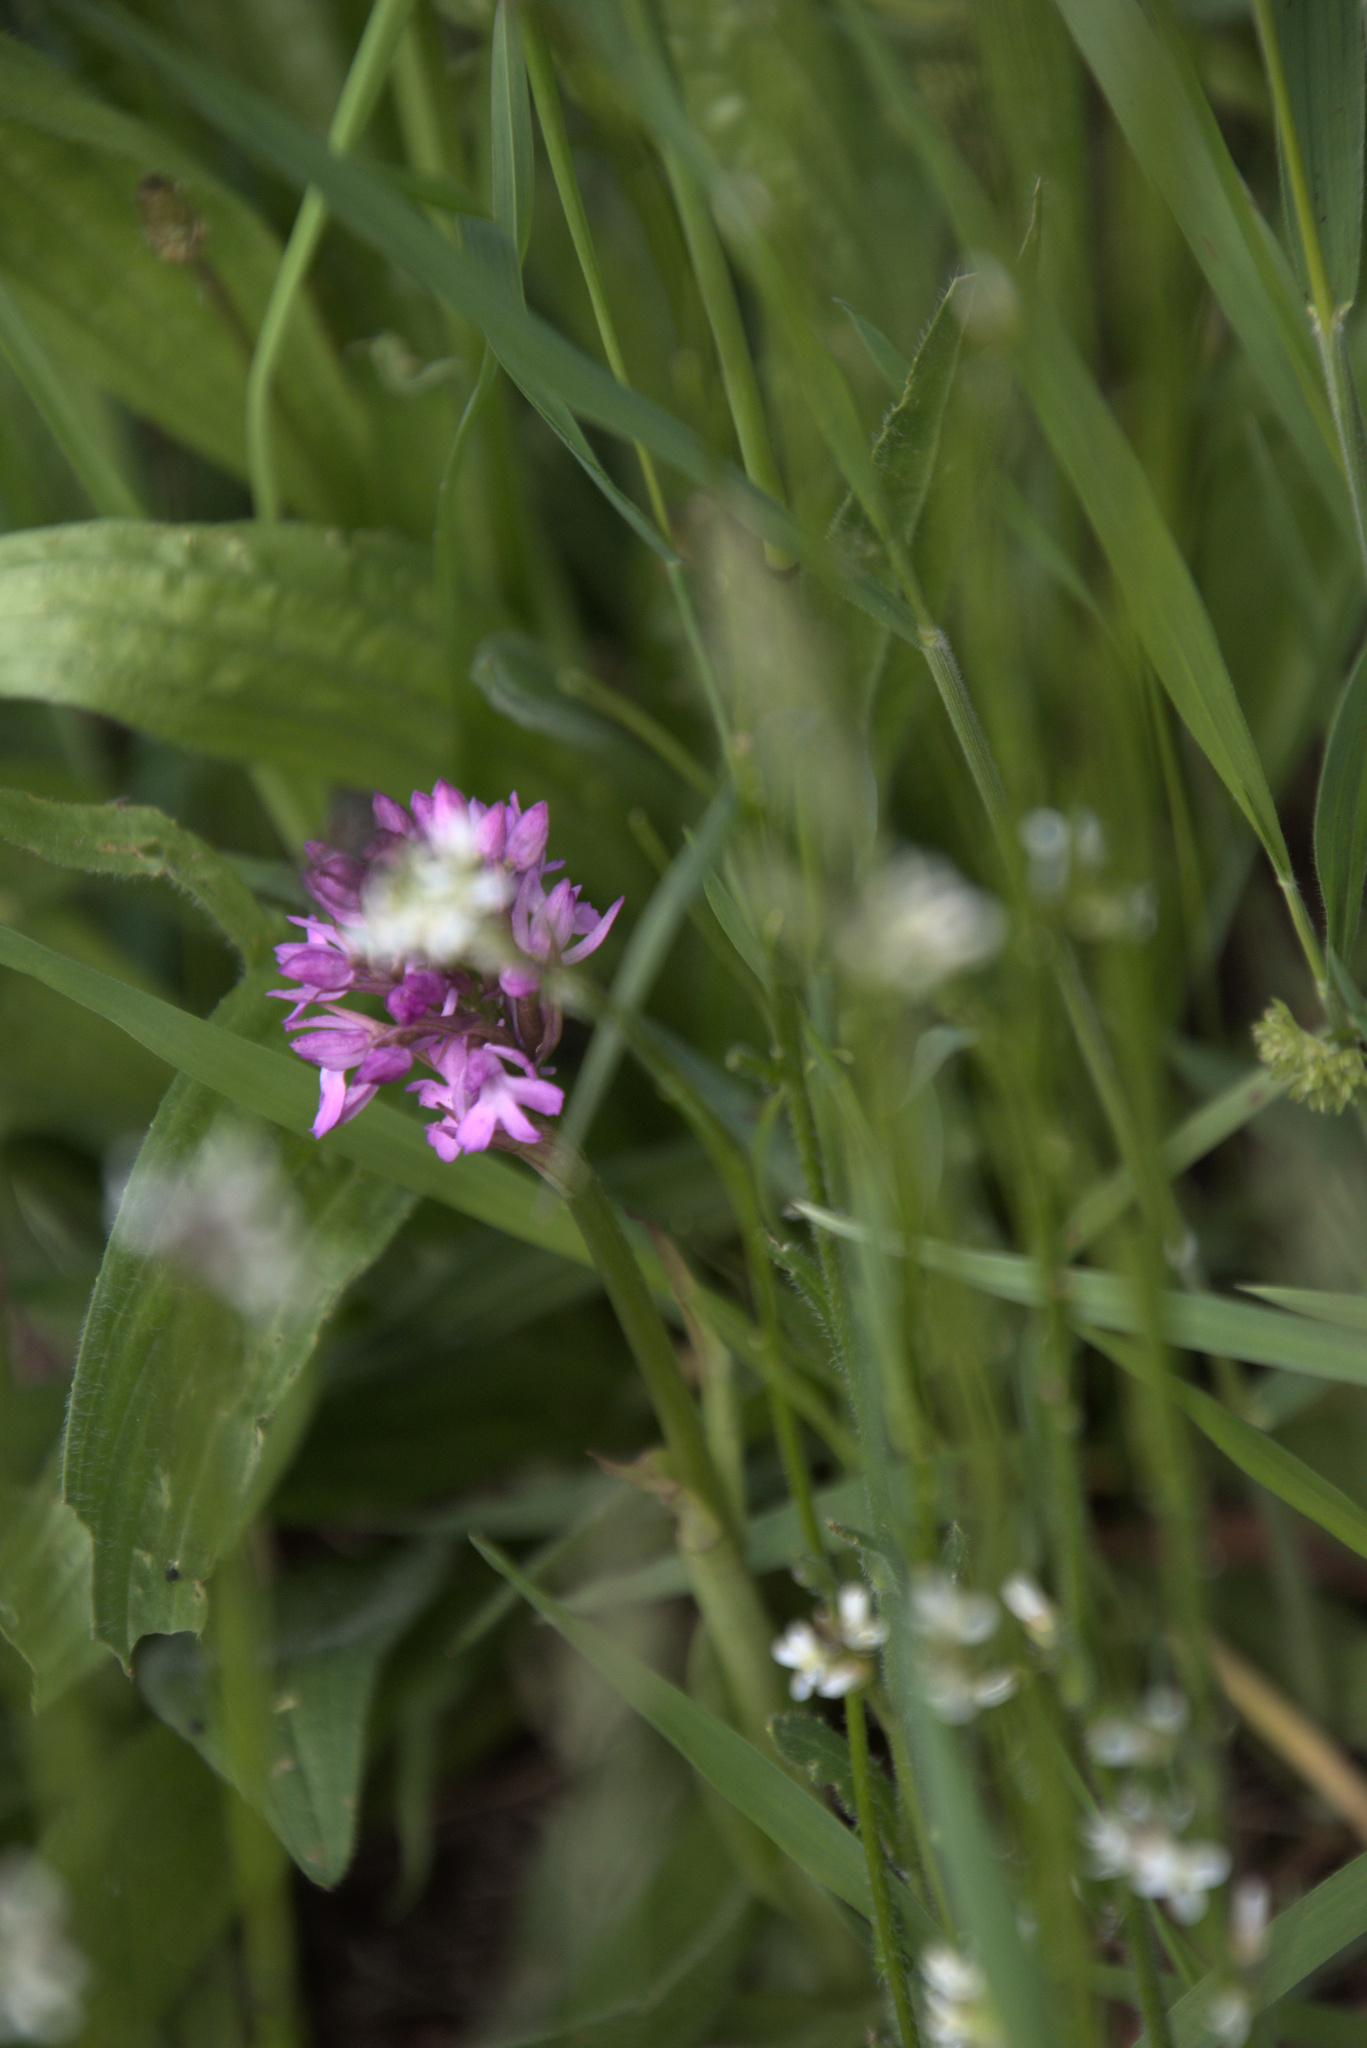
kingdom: Plantae
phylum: Tracheophyta
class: Liliopsida
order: Asparagales
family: Orchidaceae
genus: Anacamptis
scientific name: Anacamptis pyramidalis
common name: Pyramidal orchid
